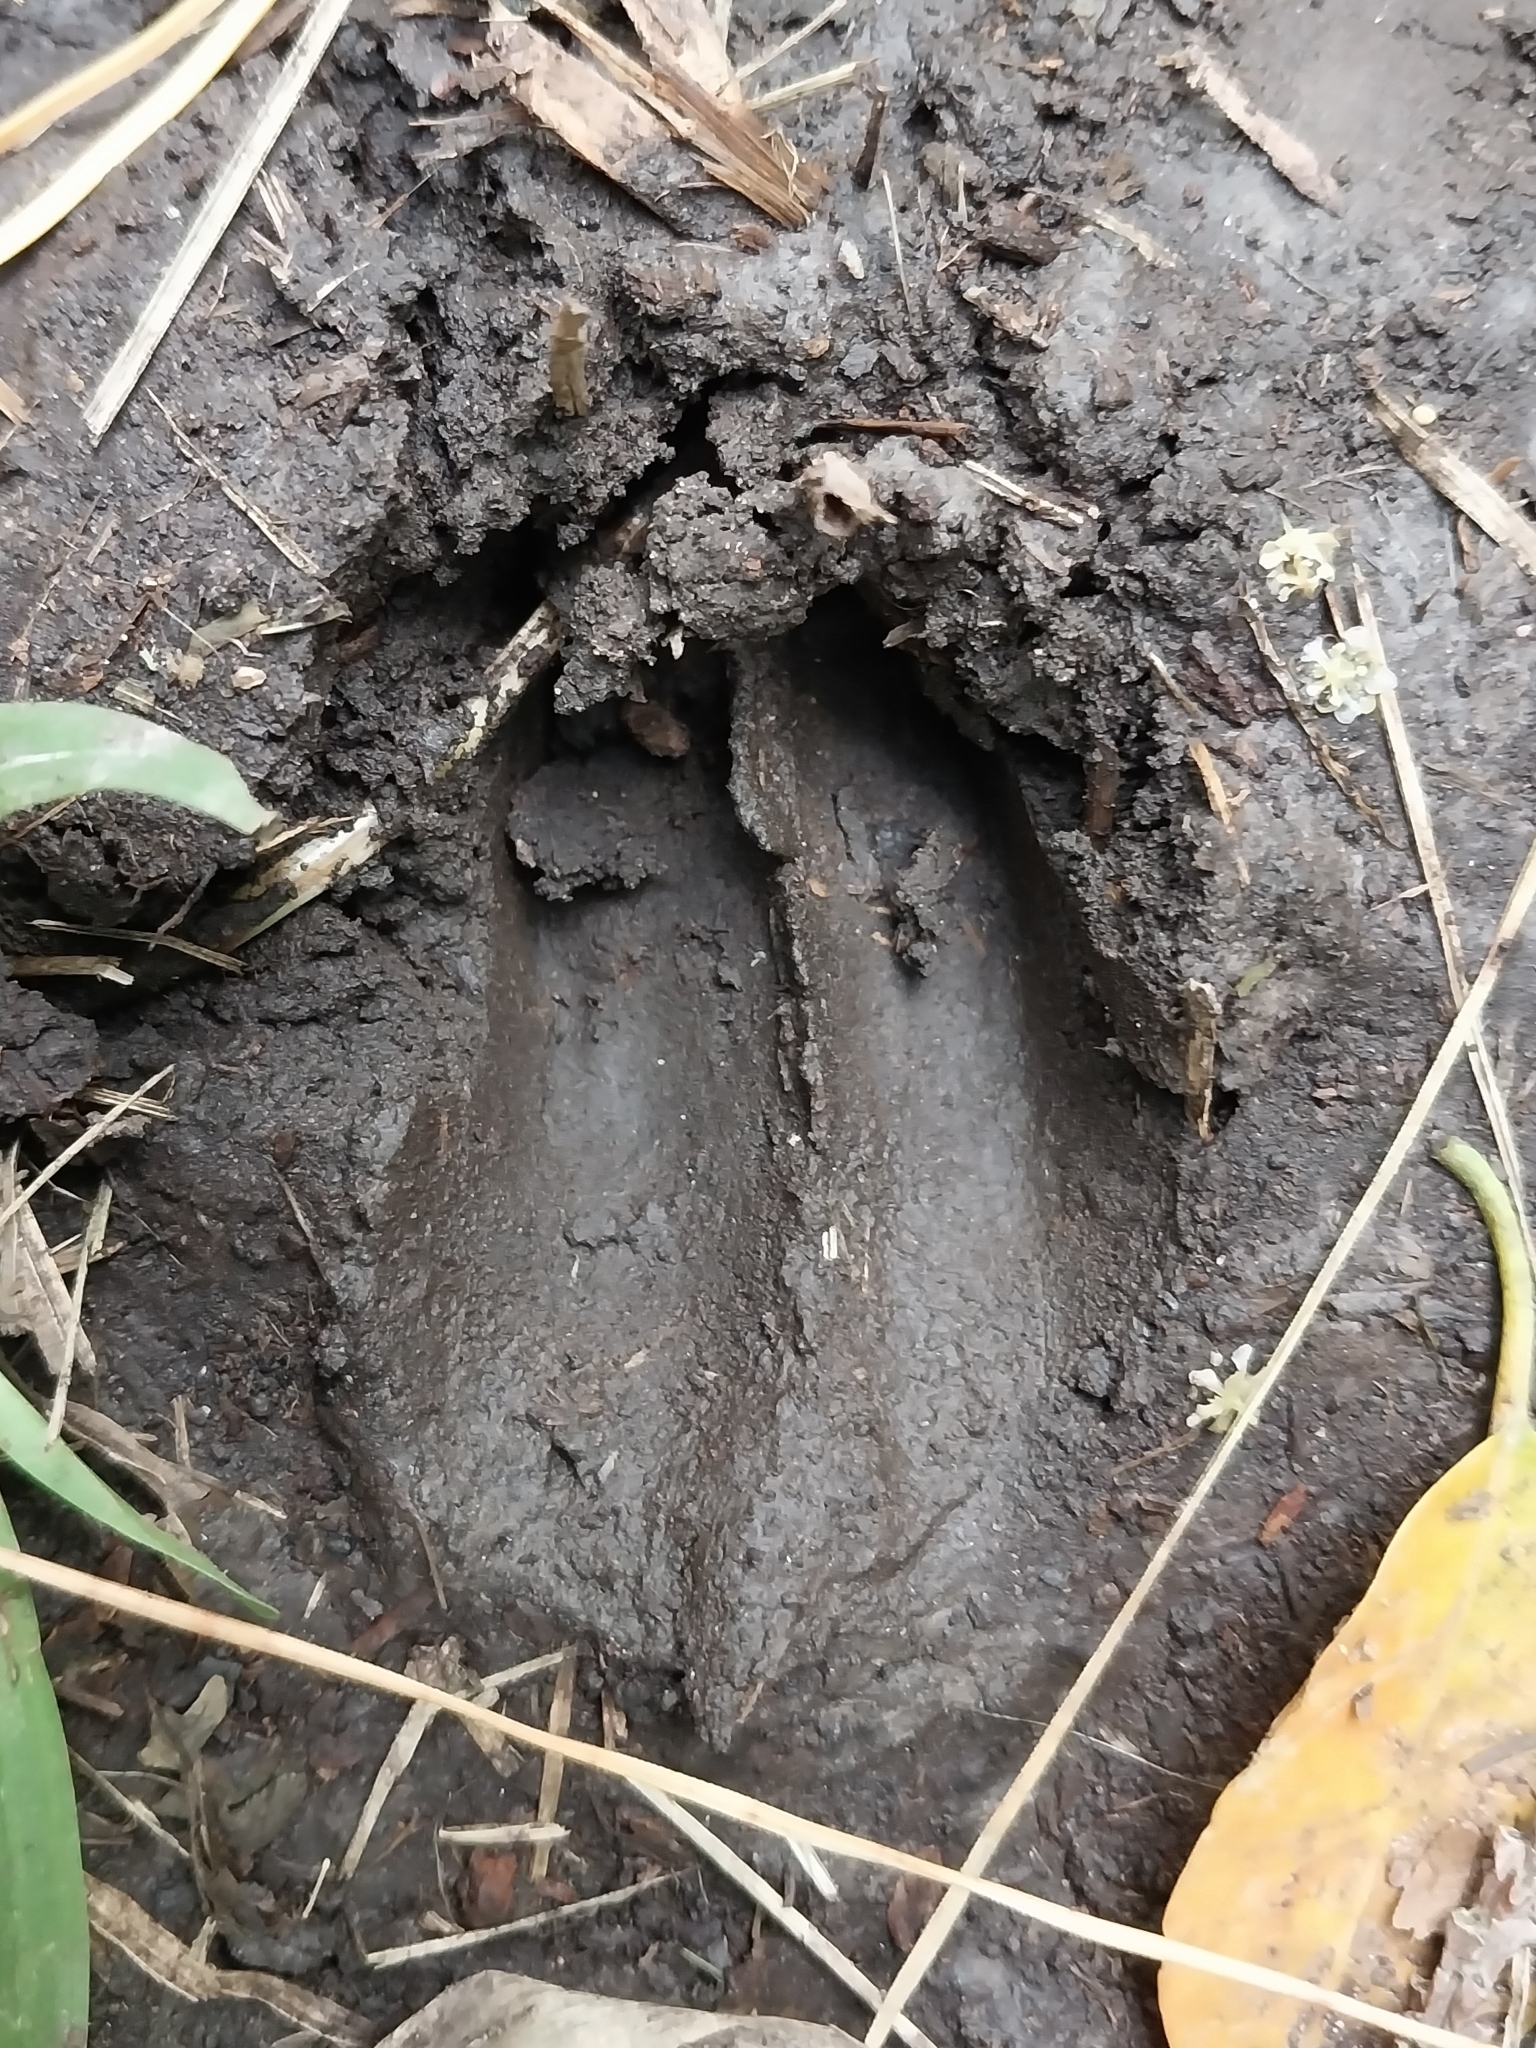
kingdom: Animalia
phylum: Chordata
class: Mammalia
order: Artiodactyla
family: Suidae
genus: Potamochoerus
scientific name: Potamochoerus larvatus
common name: Bushpig
